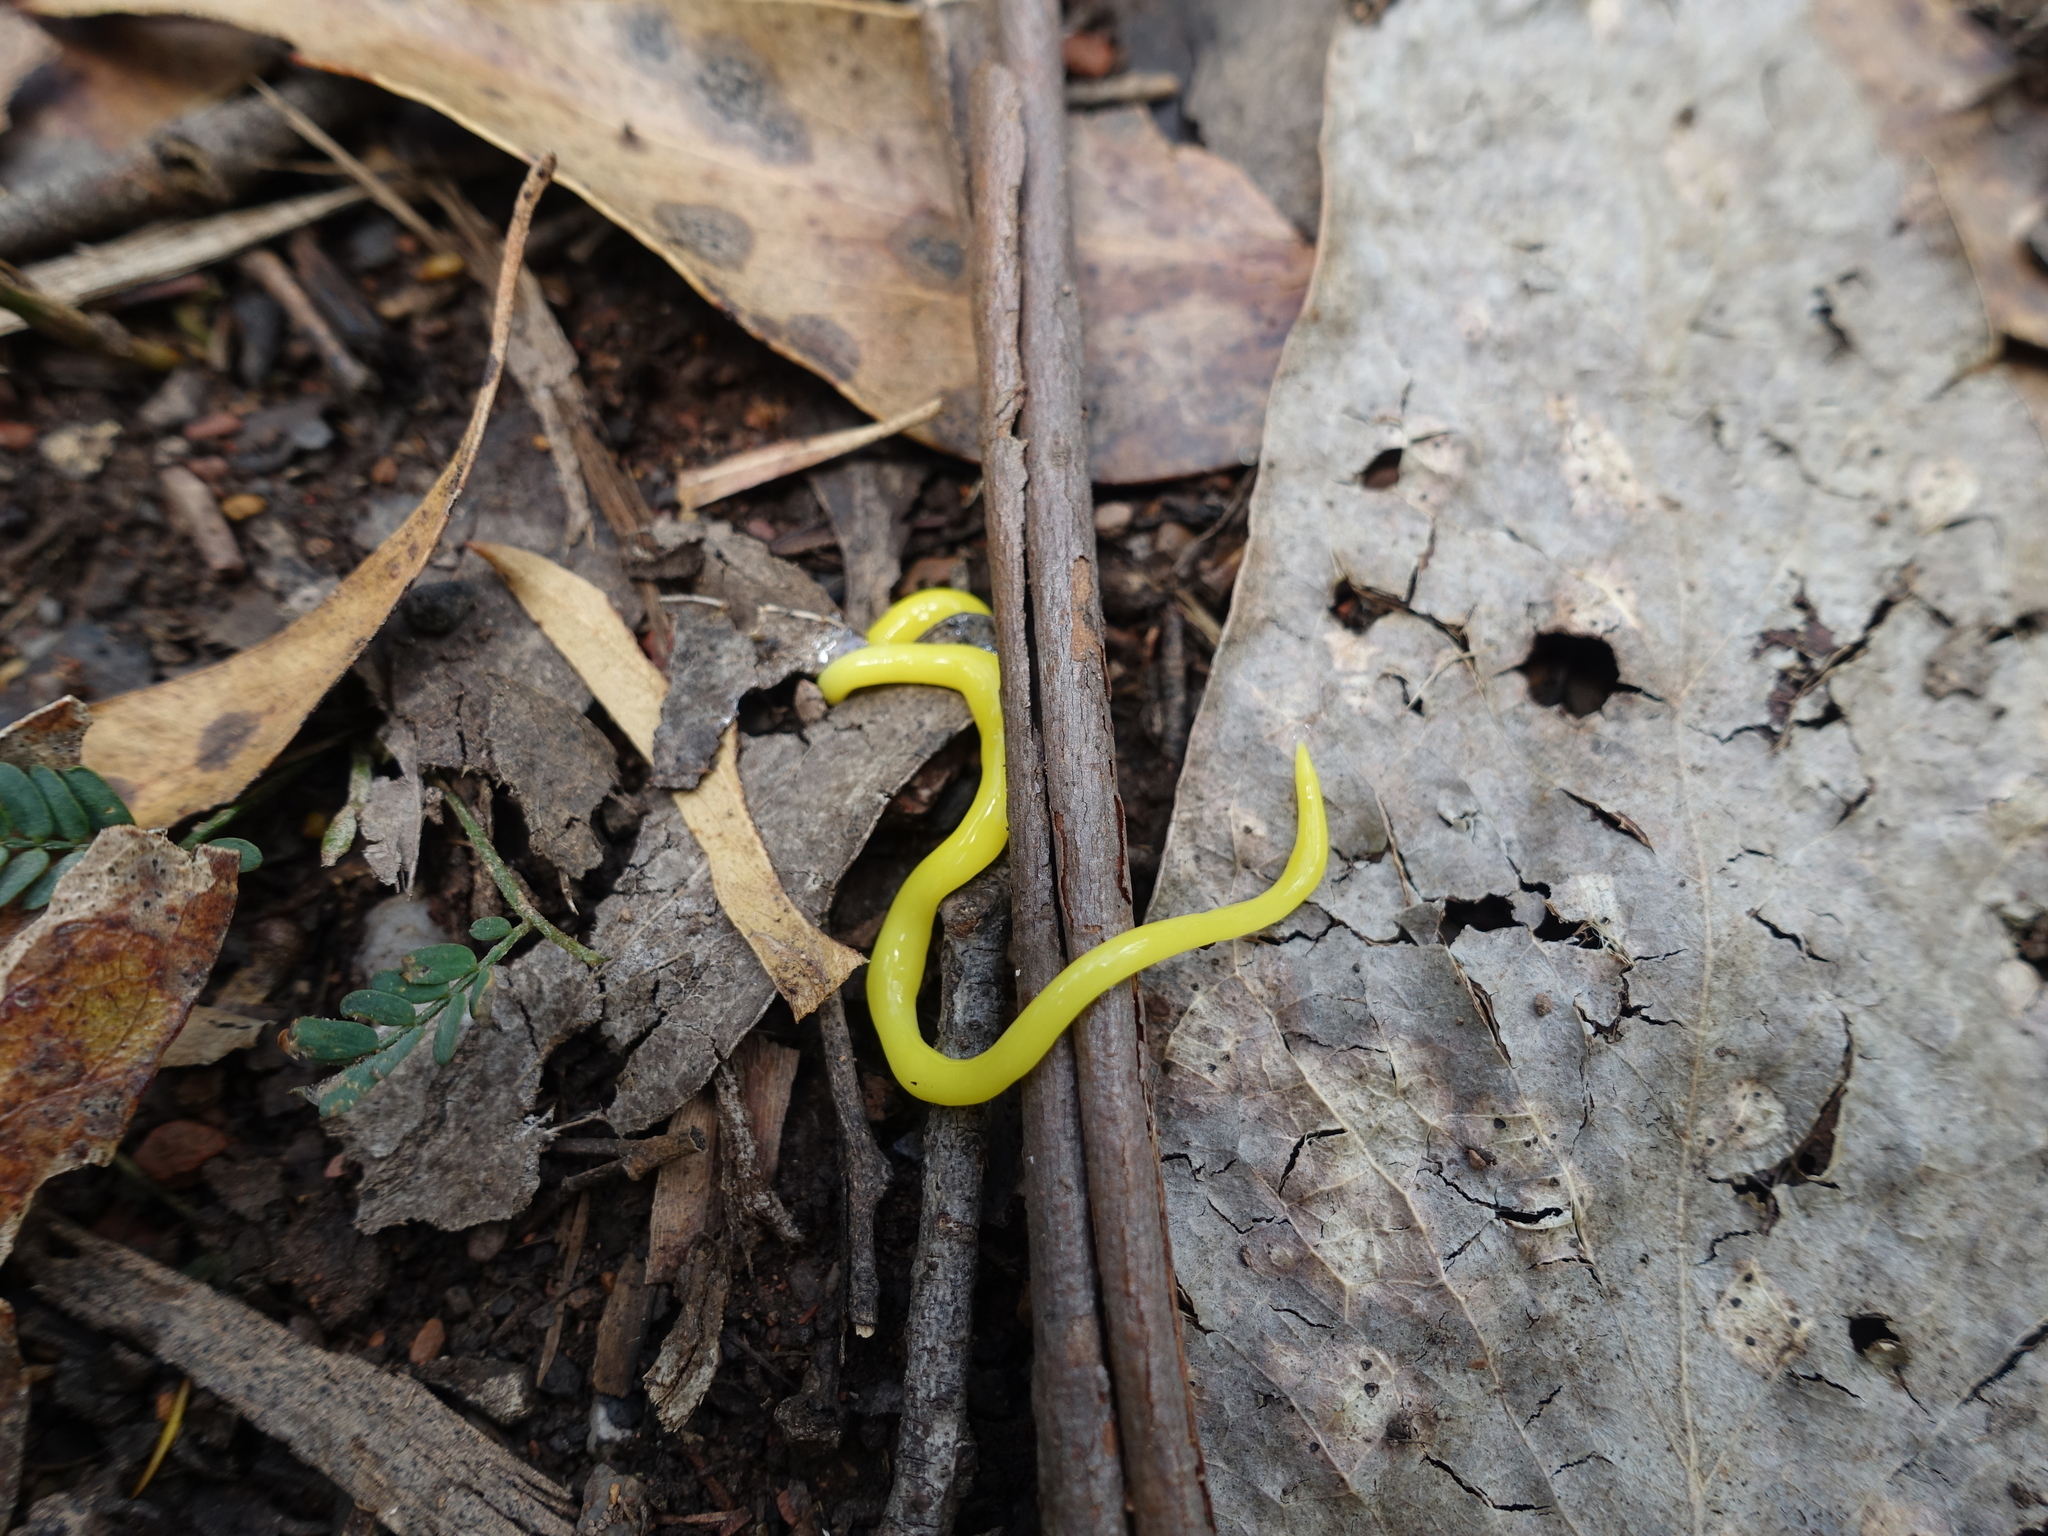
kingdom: Animalia
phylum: Platyhelminthes
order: Tricladida
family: Geoplanidae
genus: Fletchamia
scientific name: Fletchamia sugdeni
